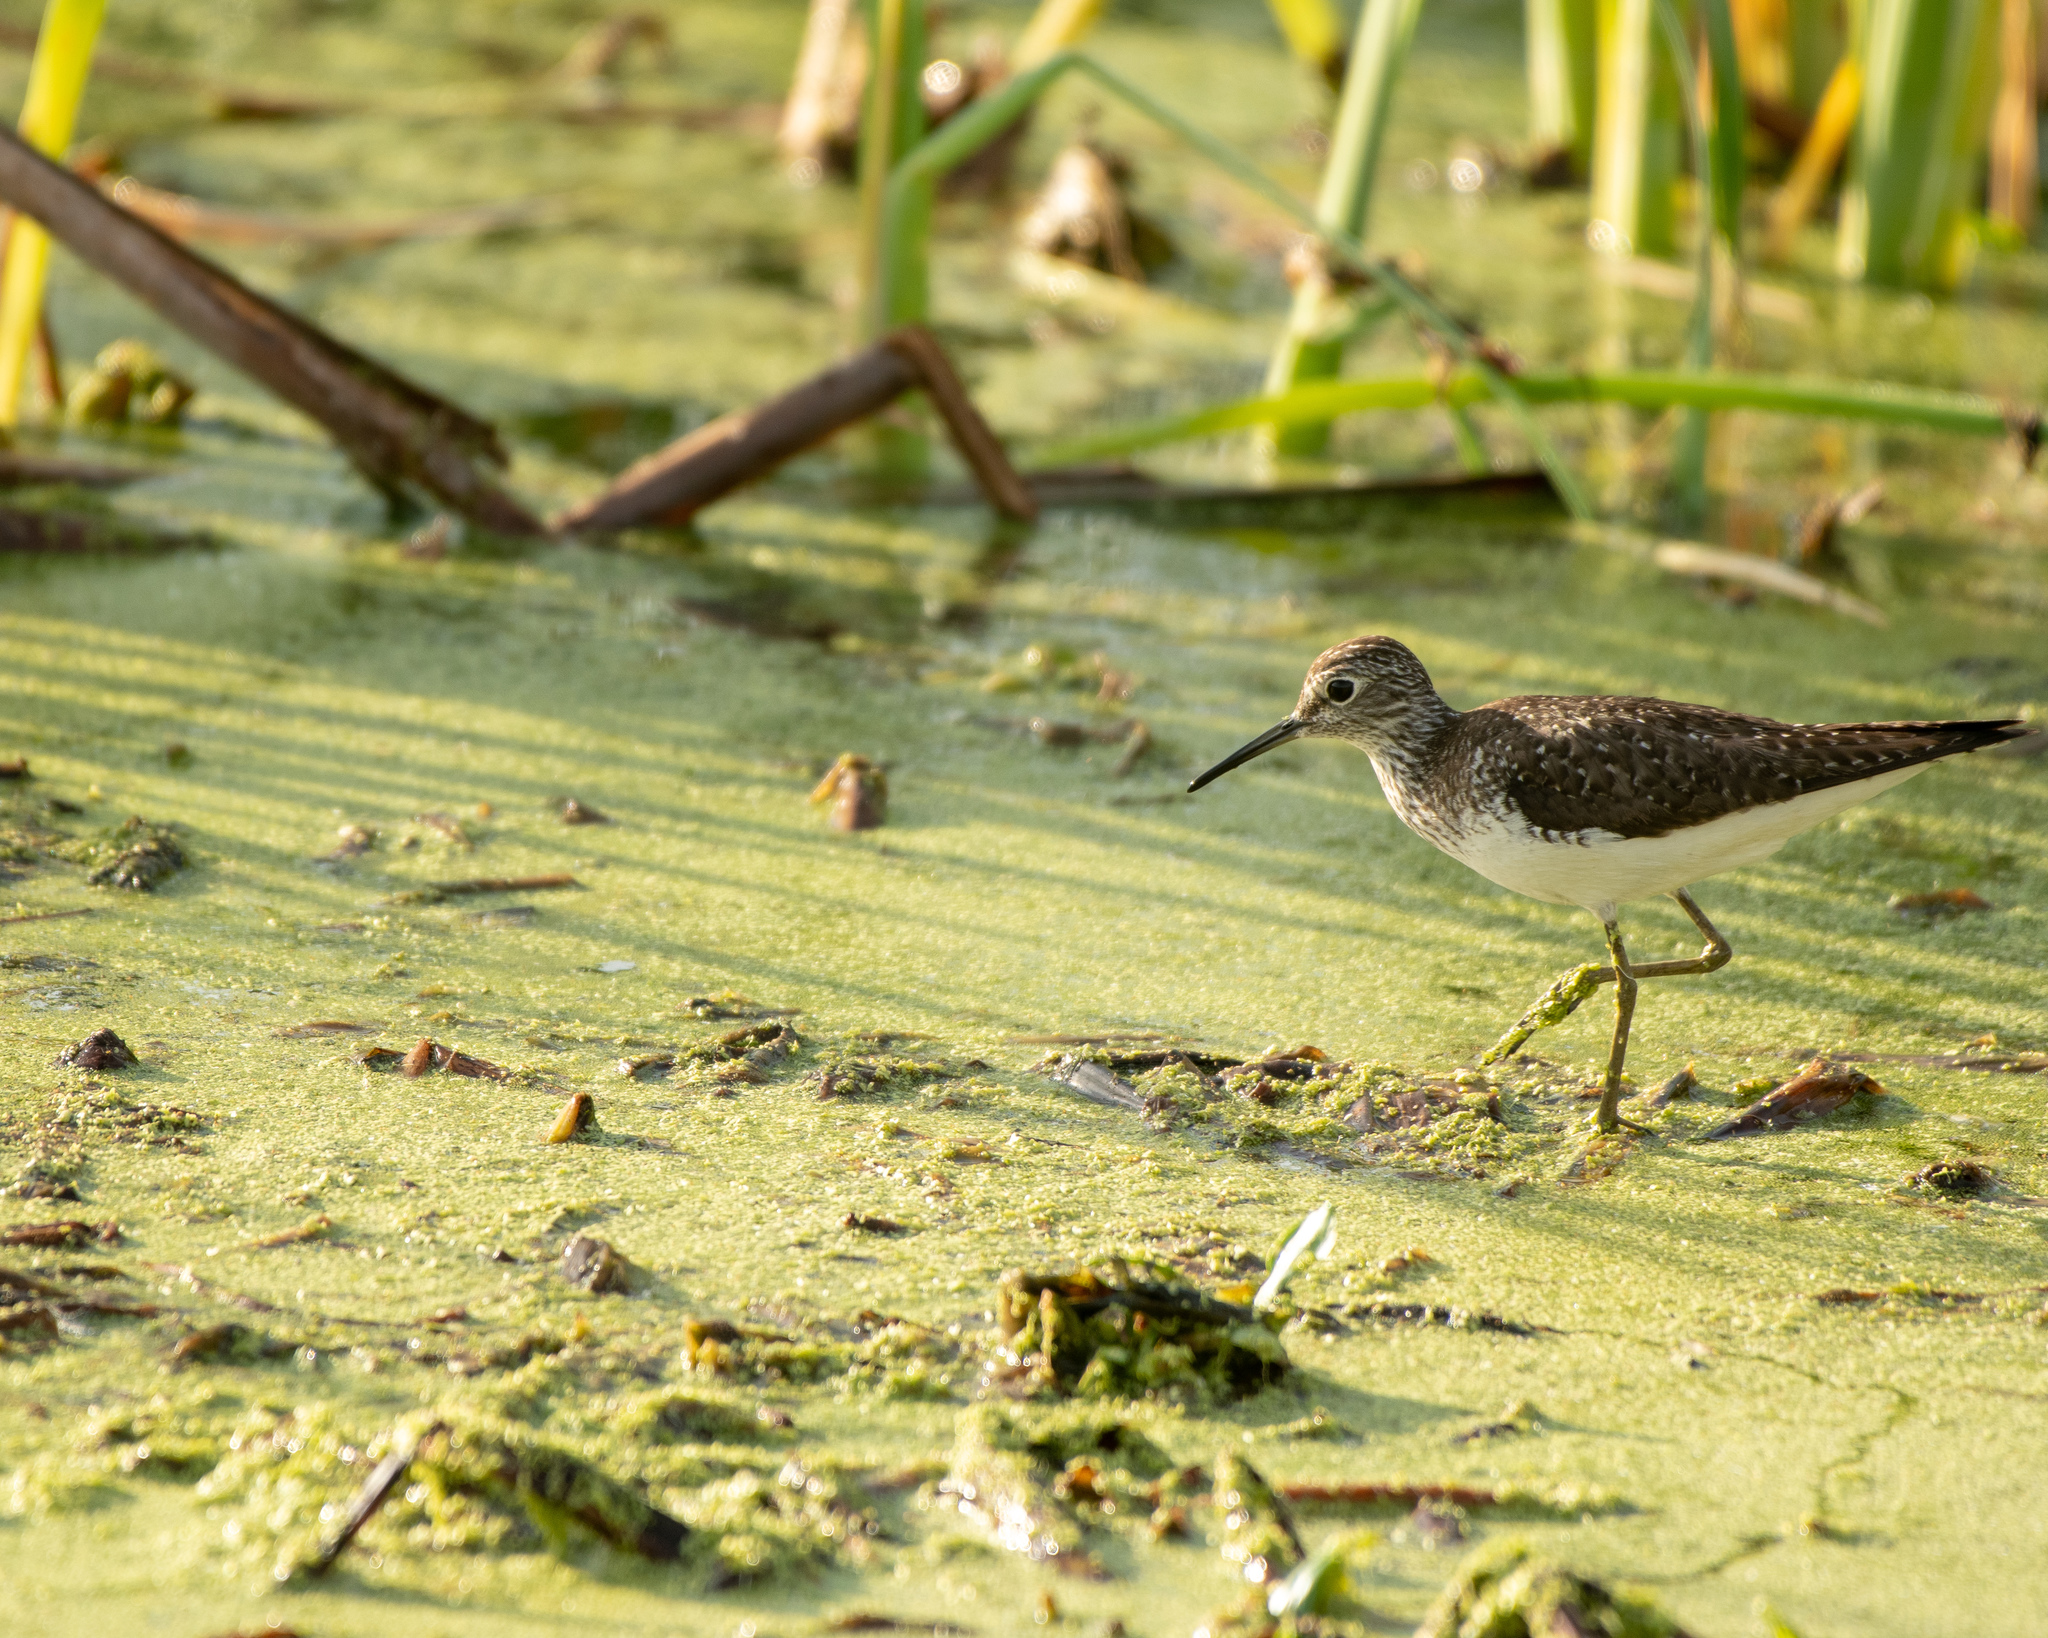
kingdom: Animalia
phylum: Chordata
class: Aves
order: Charadriiformes
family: Scolopacidae
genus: Tringa
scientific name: Tringa solitaria
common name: Solitary sandpiper
